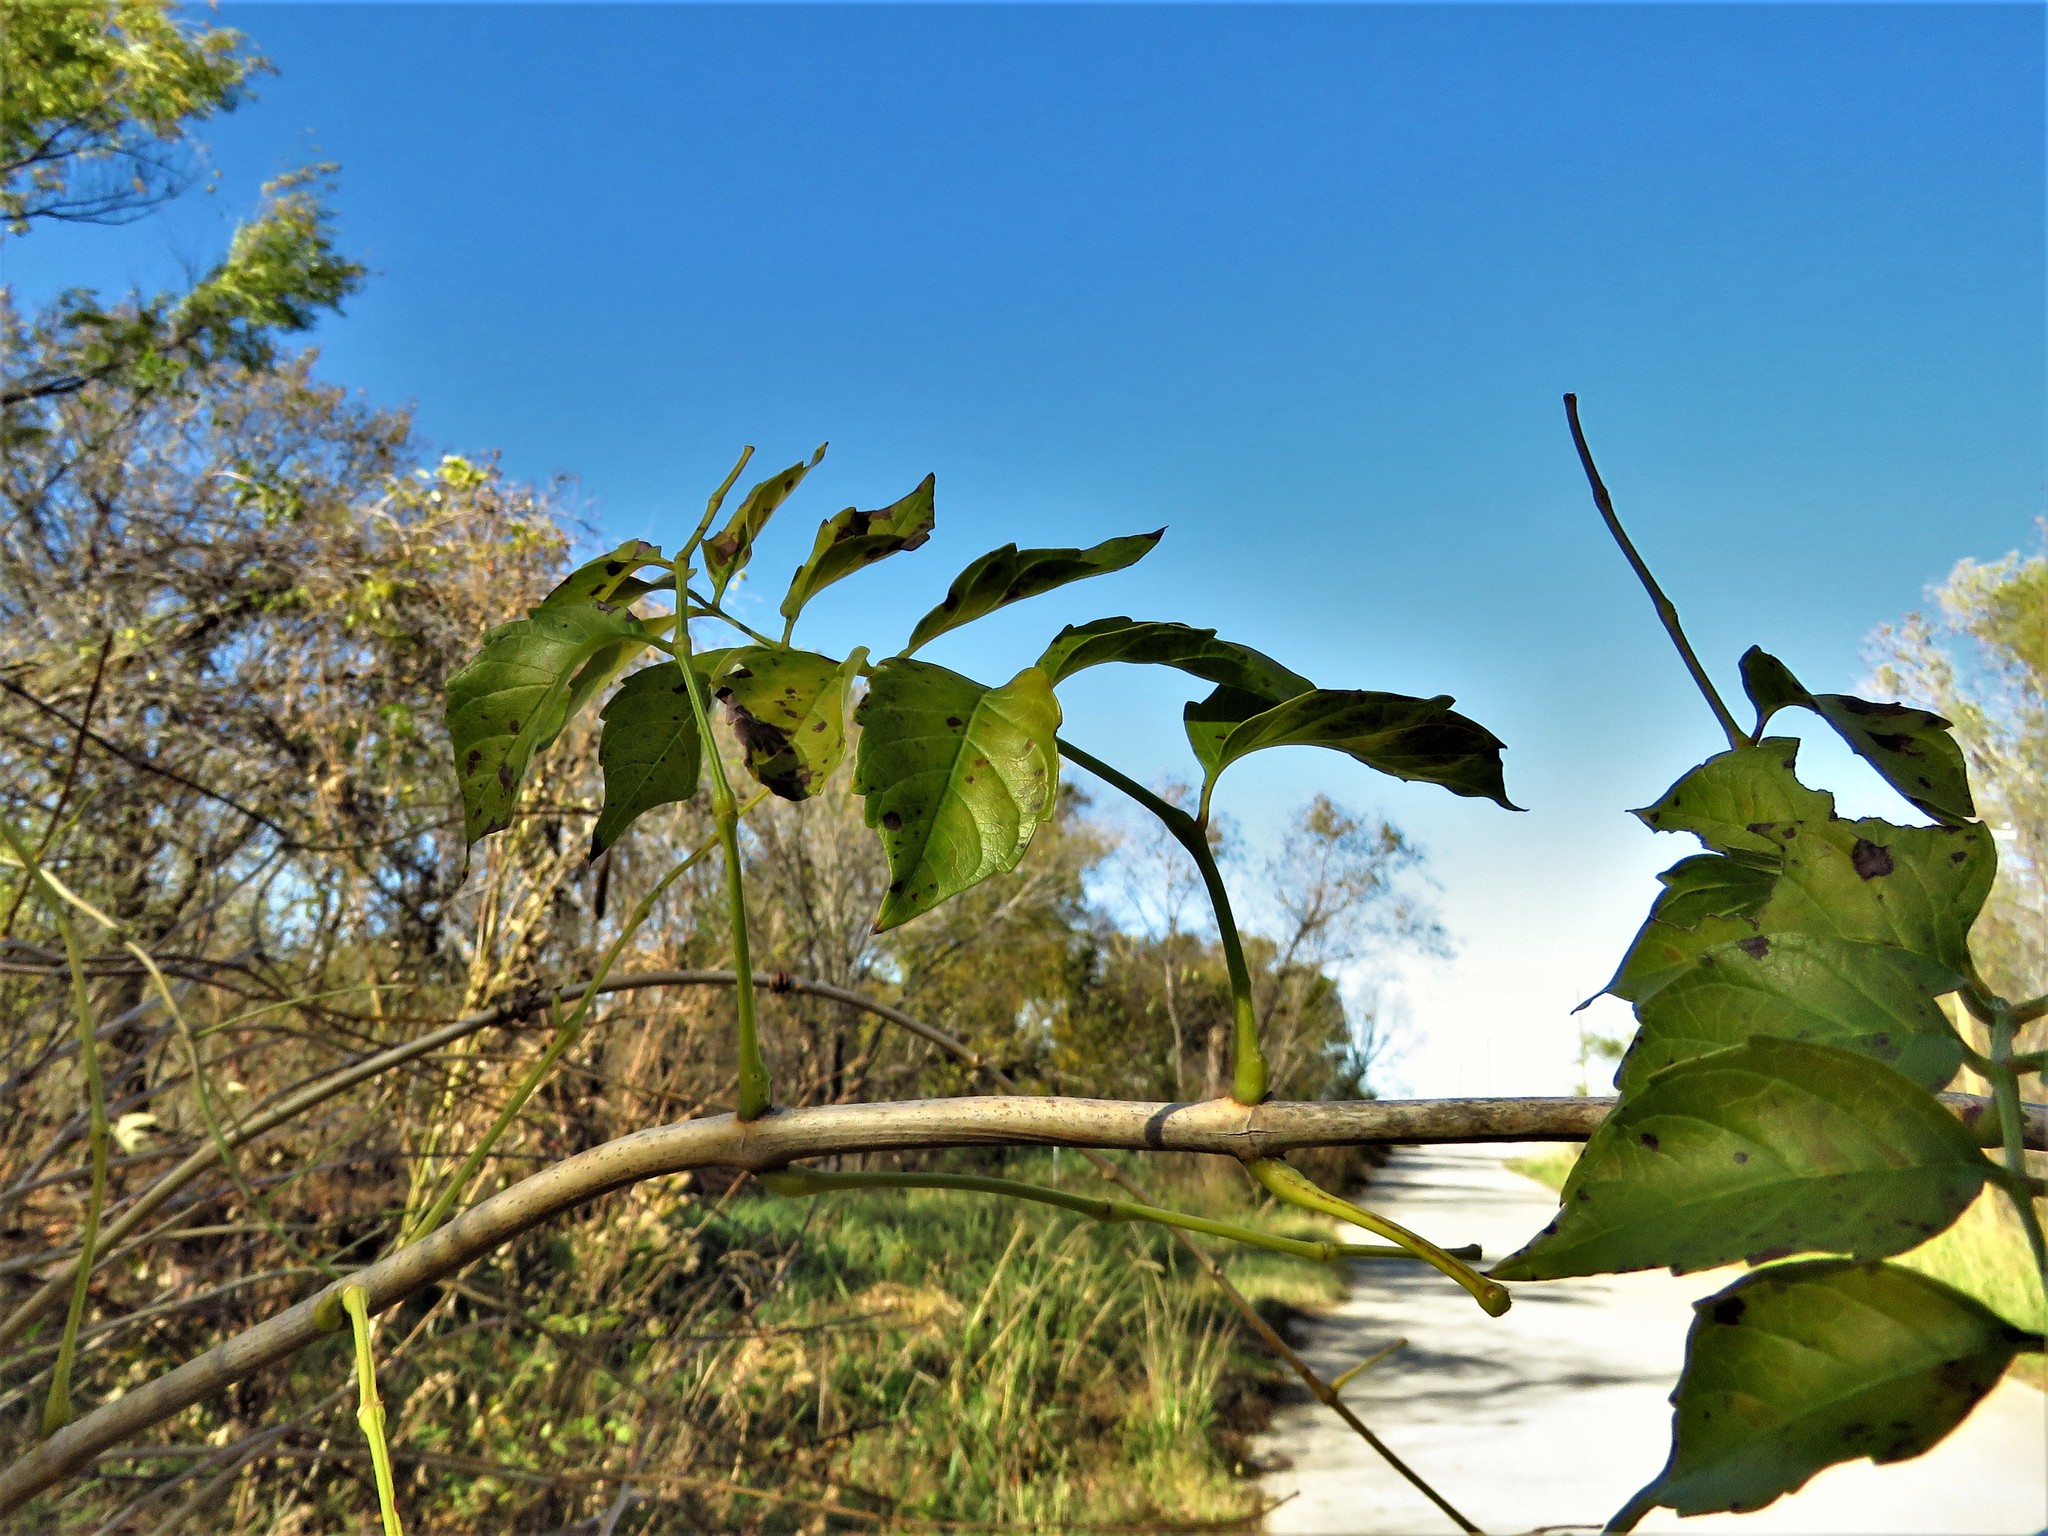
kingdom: Plantae
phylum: Tracheophyta
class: Magnoliopsida
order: Lamiales
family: Bignoniaceae
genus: Campsis
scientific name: Campsis radicans
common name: Trumpet-creeper
